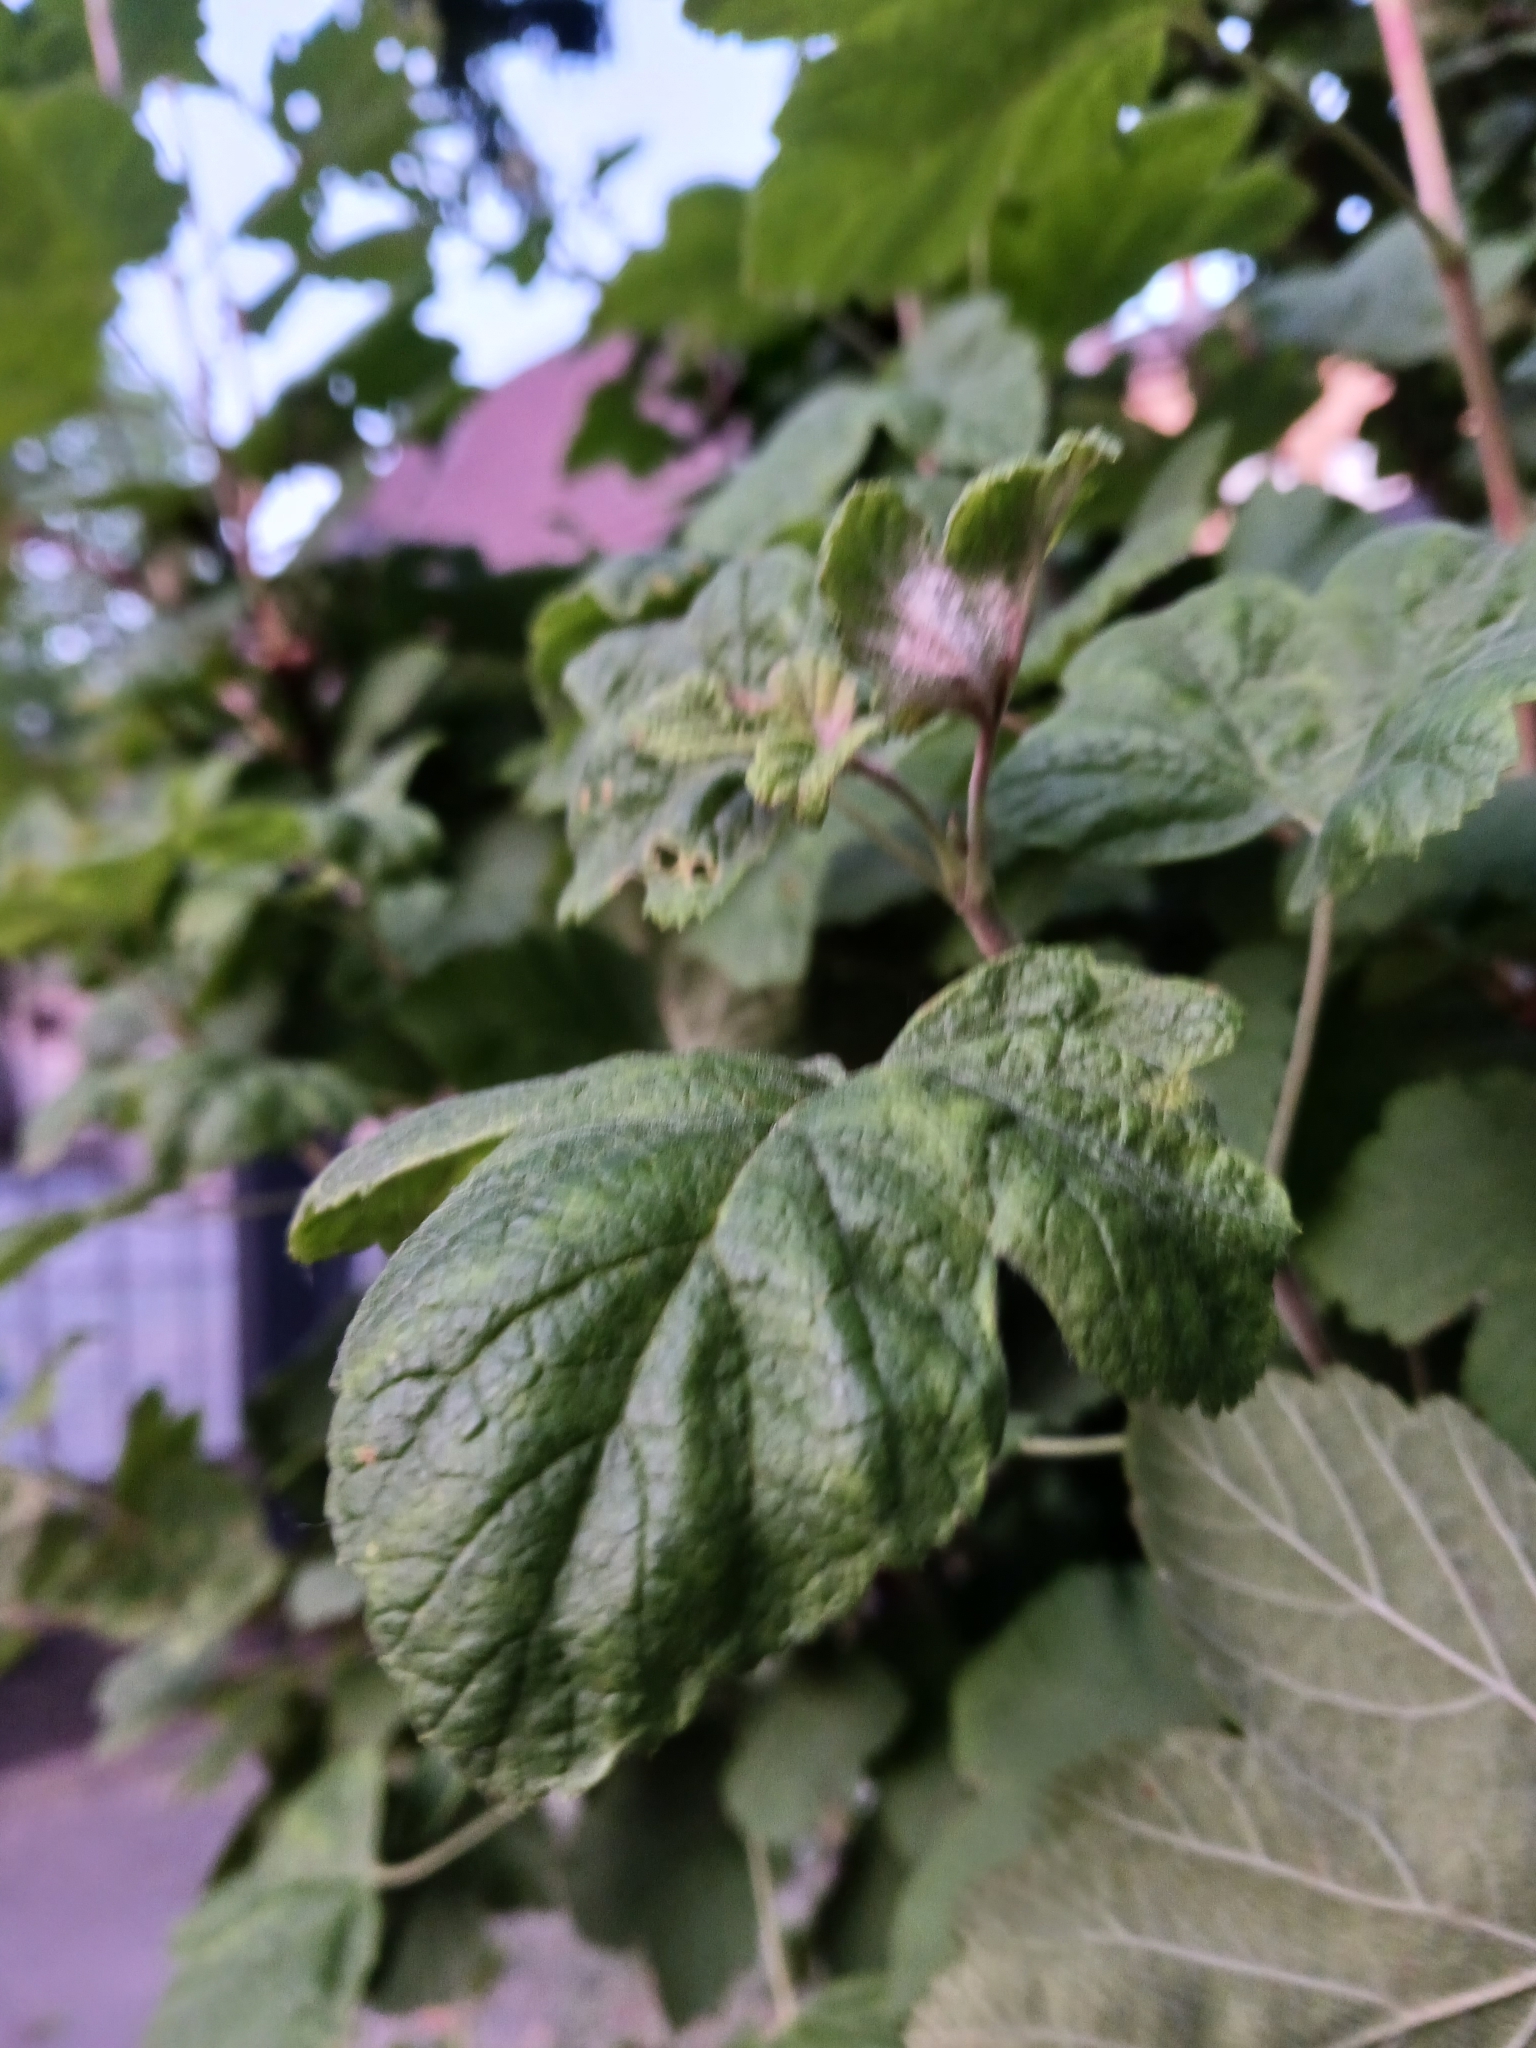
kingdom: Fungi
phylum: Ascomycota
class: Leotiomycetes
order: Helotiales
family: Erysiphaceae
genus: Podosphaera
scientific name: Podosphaera mors-uvae
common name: American gooseberry mildew
